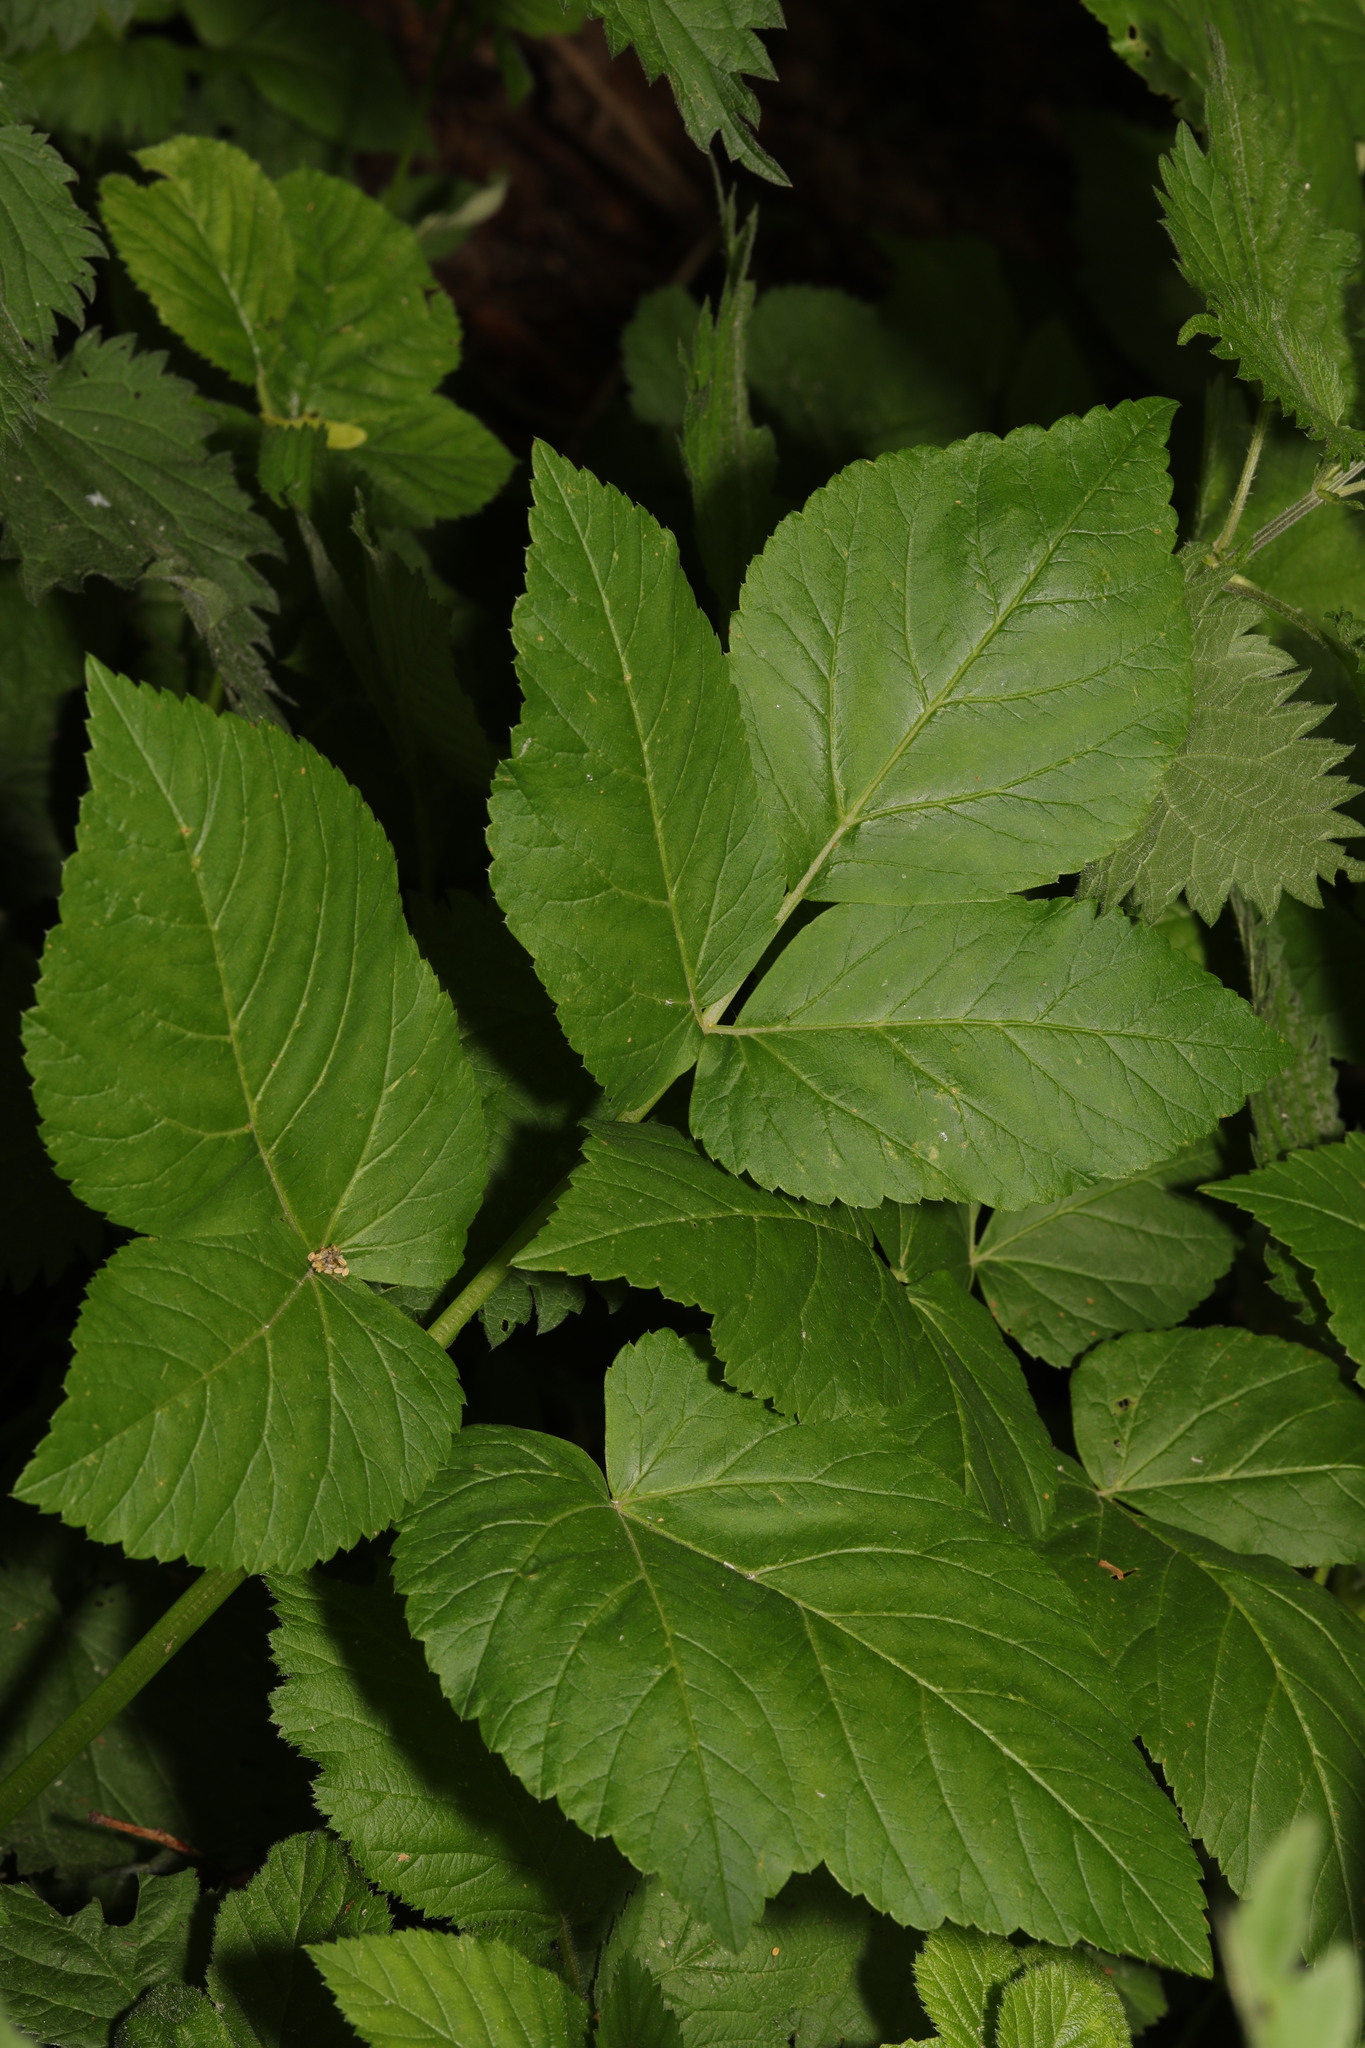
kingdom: Plantae
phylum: Tracheophyta
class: Magnoliopsida
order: Apiales
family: Apiaceae
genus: Aegopodium
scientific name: Aegopodium podagraria
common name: Ground-elder
